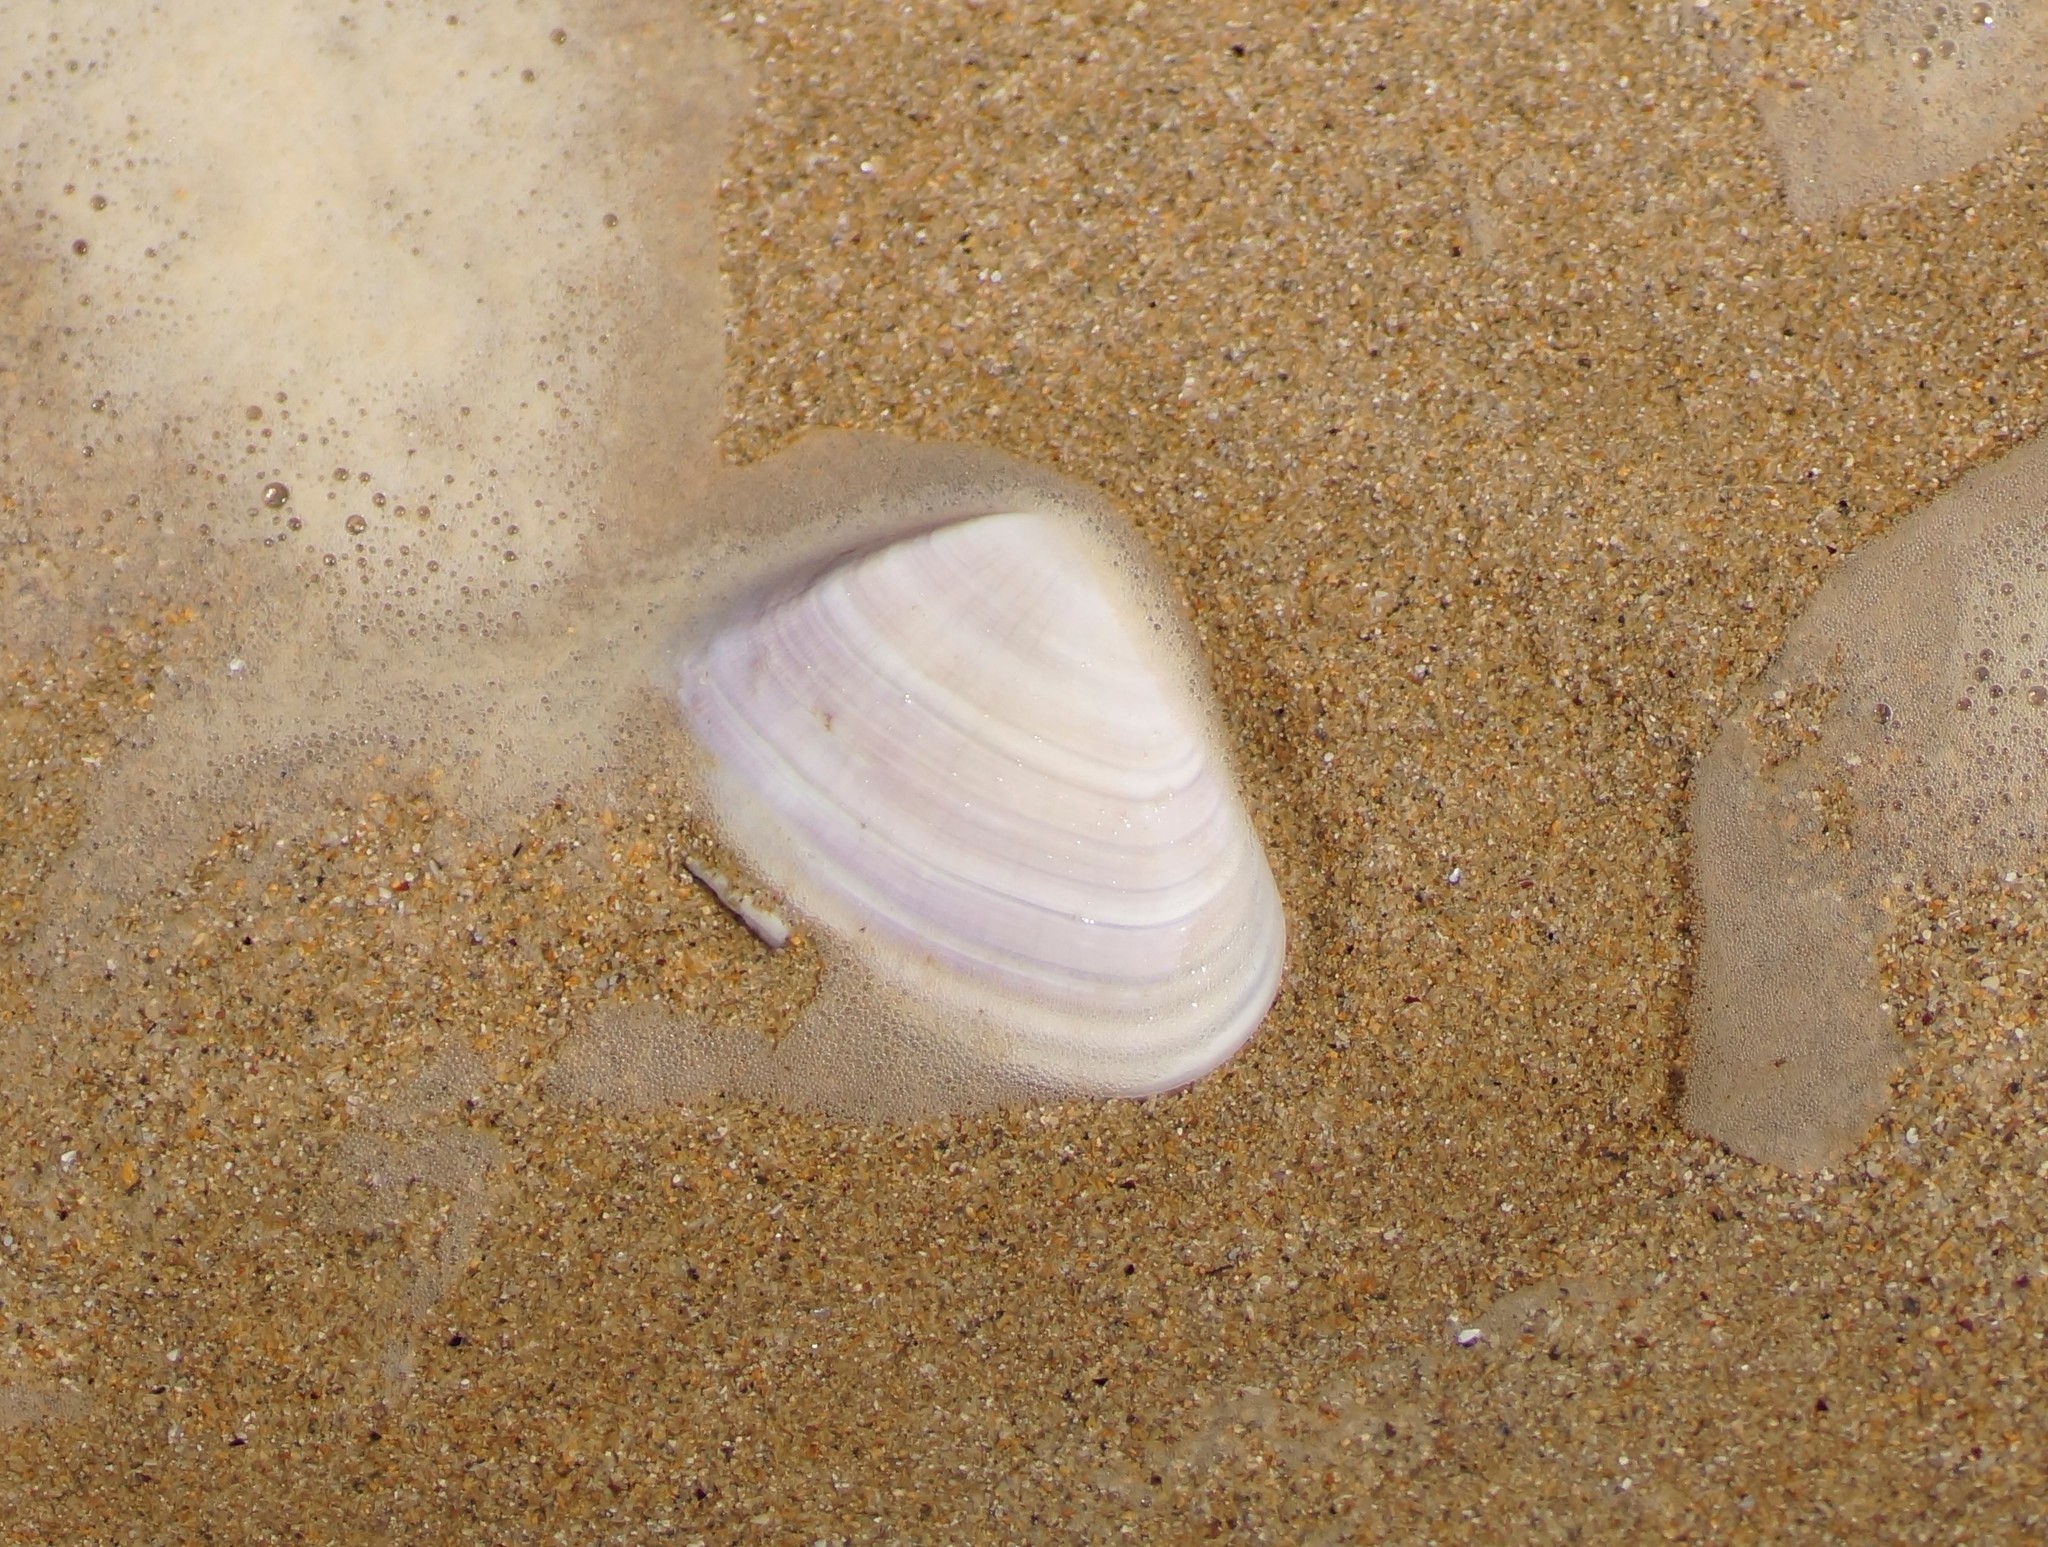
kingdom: Animalia
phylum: Mollusca
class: Bivalvia
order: Cardiida
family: Donacidae
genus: Latona
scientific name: Latona deltoides
